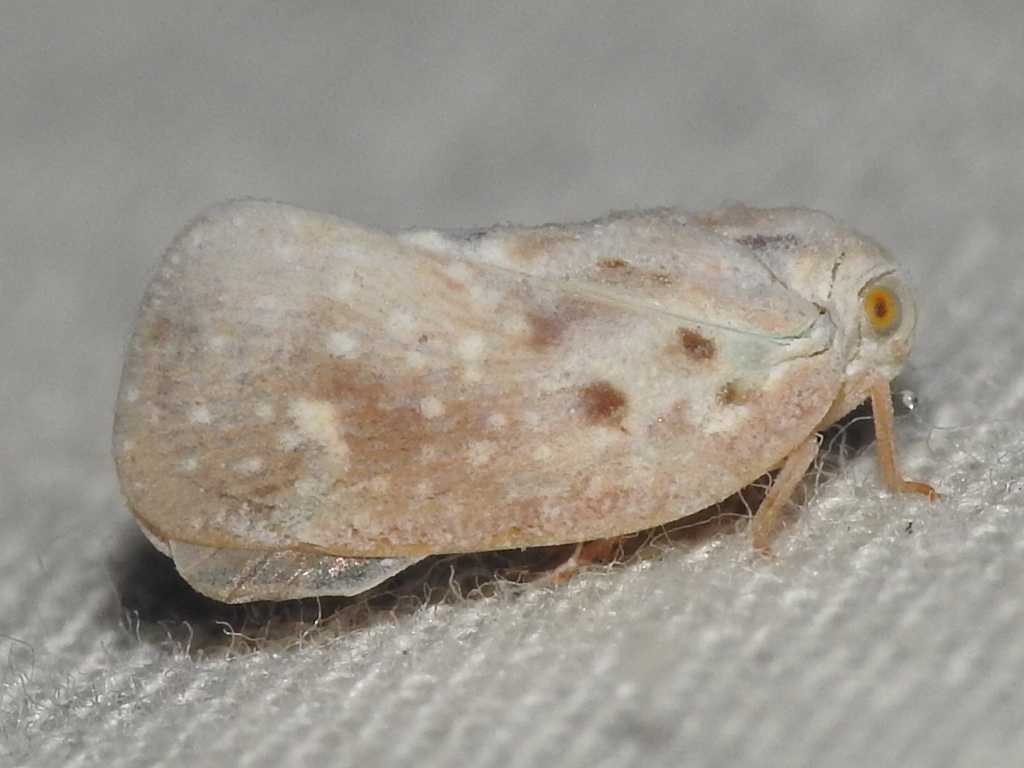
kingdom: Animalia
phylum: Arthropoda
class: Insecta
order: Hemiptera
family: Flatidae
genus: Metcalfa
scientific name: Metcalfa pruinosa
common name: Citrus flatid planthopper
